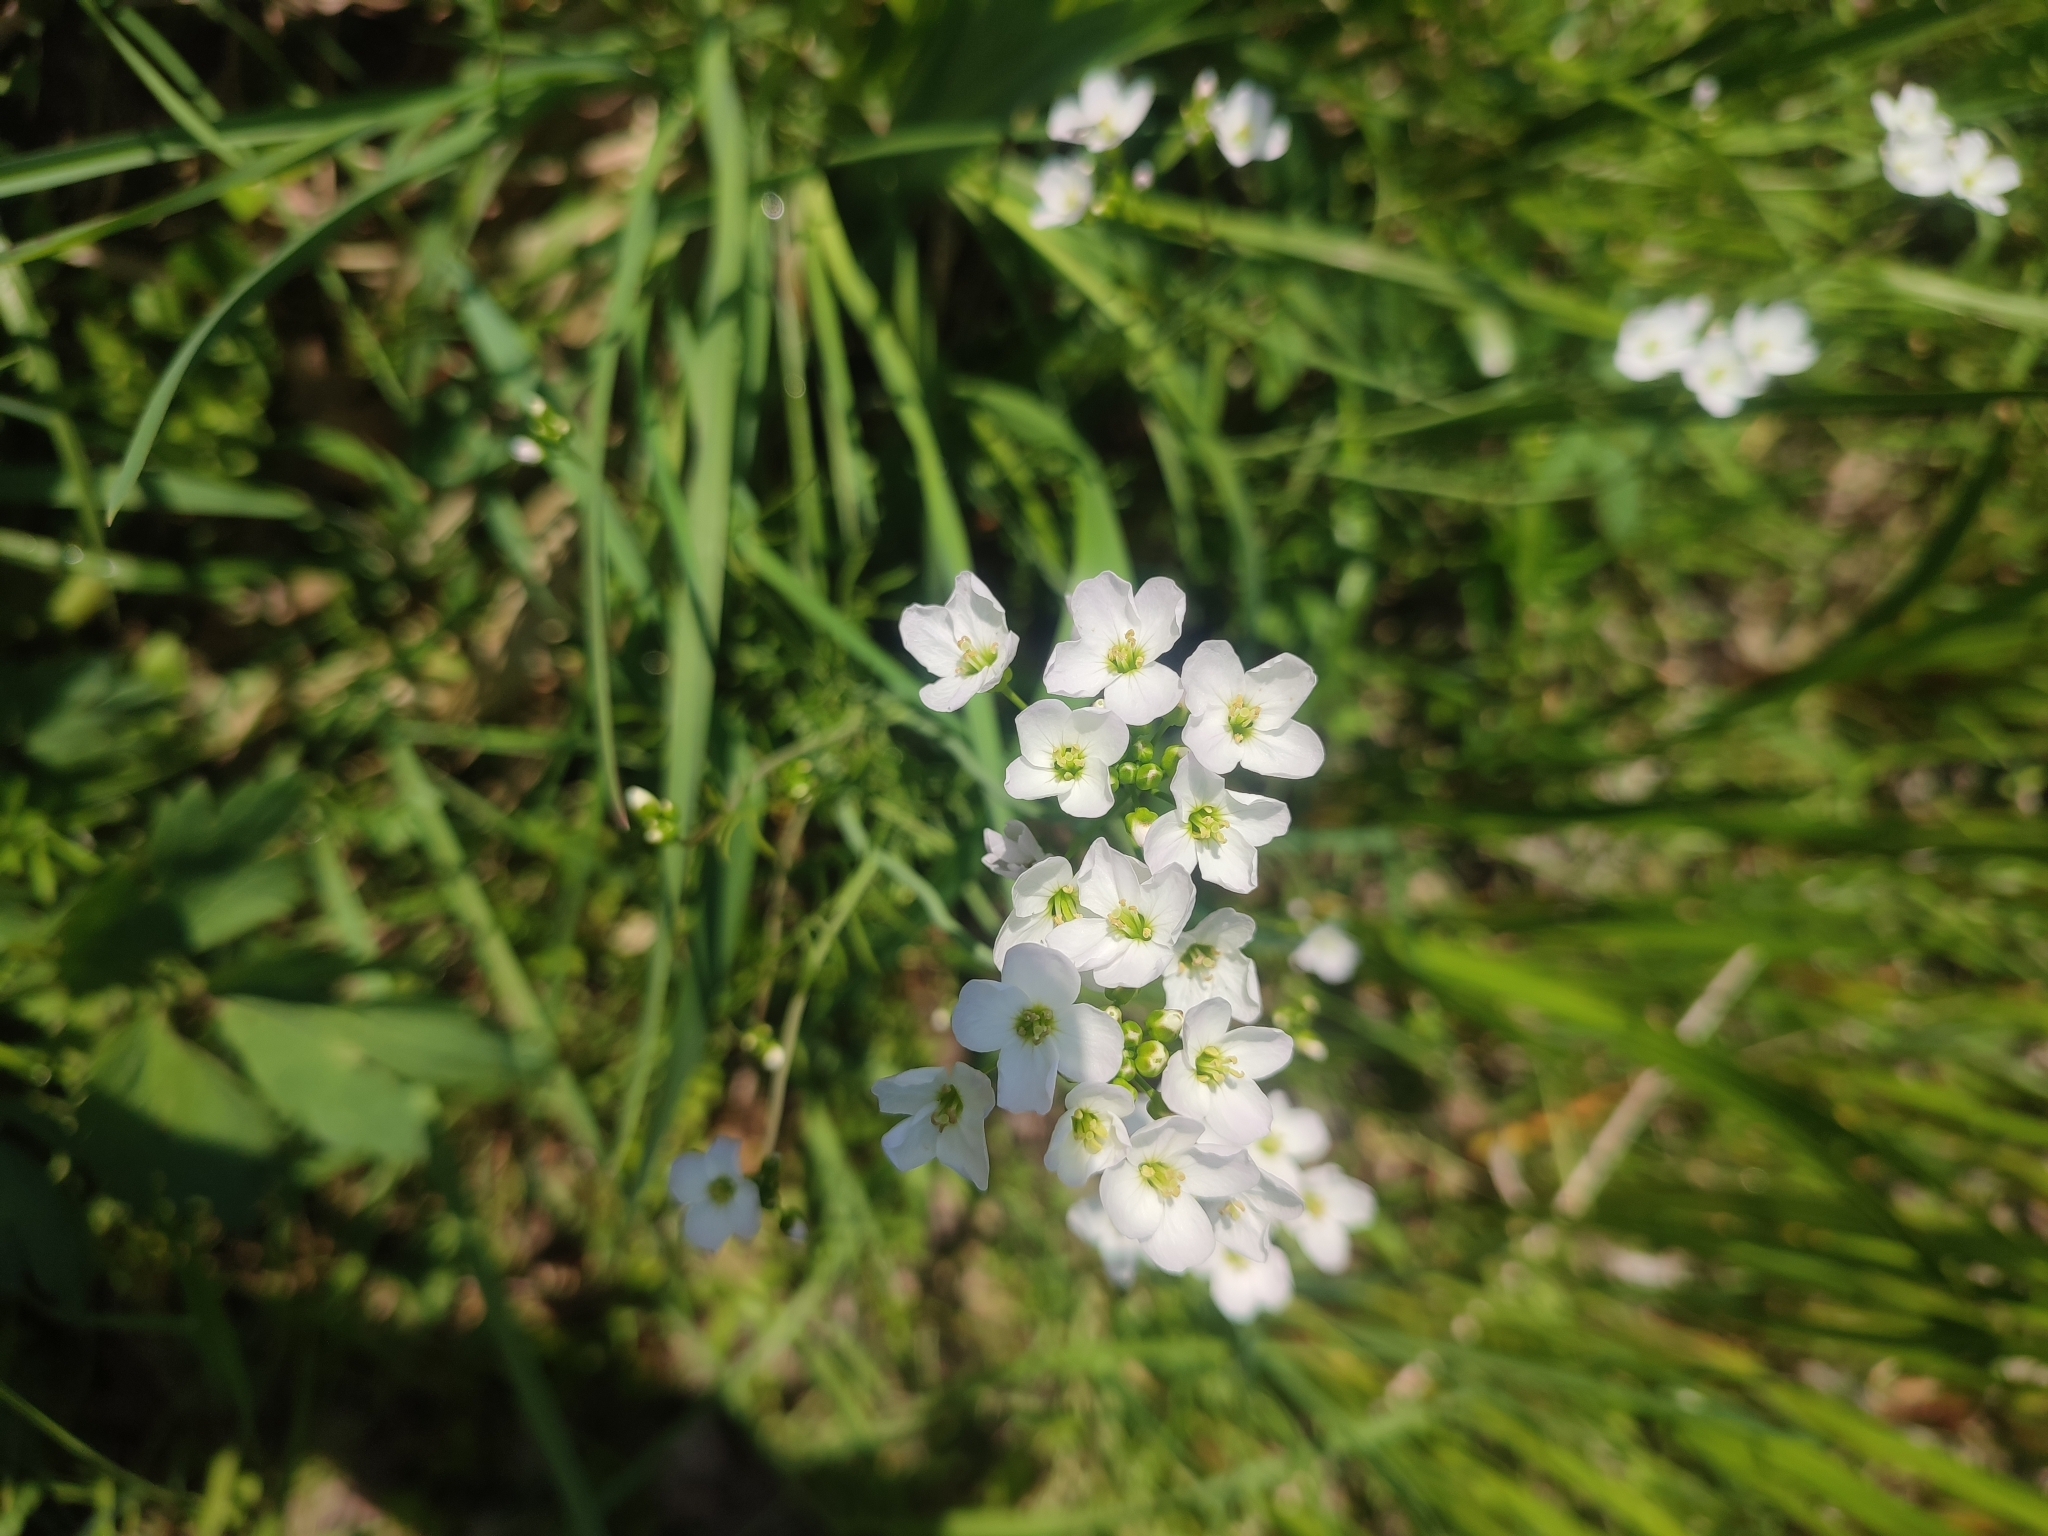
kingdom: Plantae
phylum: Tracheophyta
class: Magnoliopsida
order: Brassicales
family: Brassicaceae
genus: Cardamine
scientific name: Cardamine pratensis
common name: Cuckoo flower
